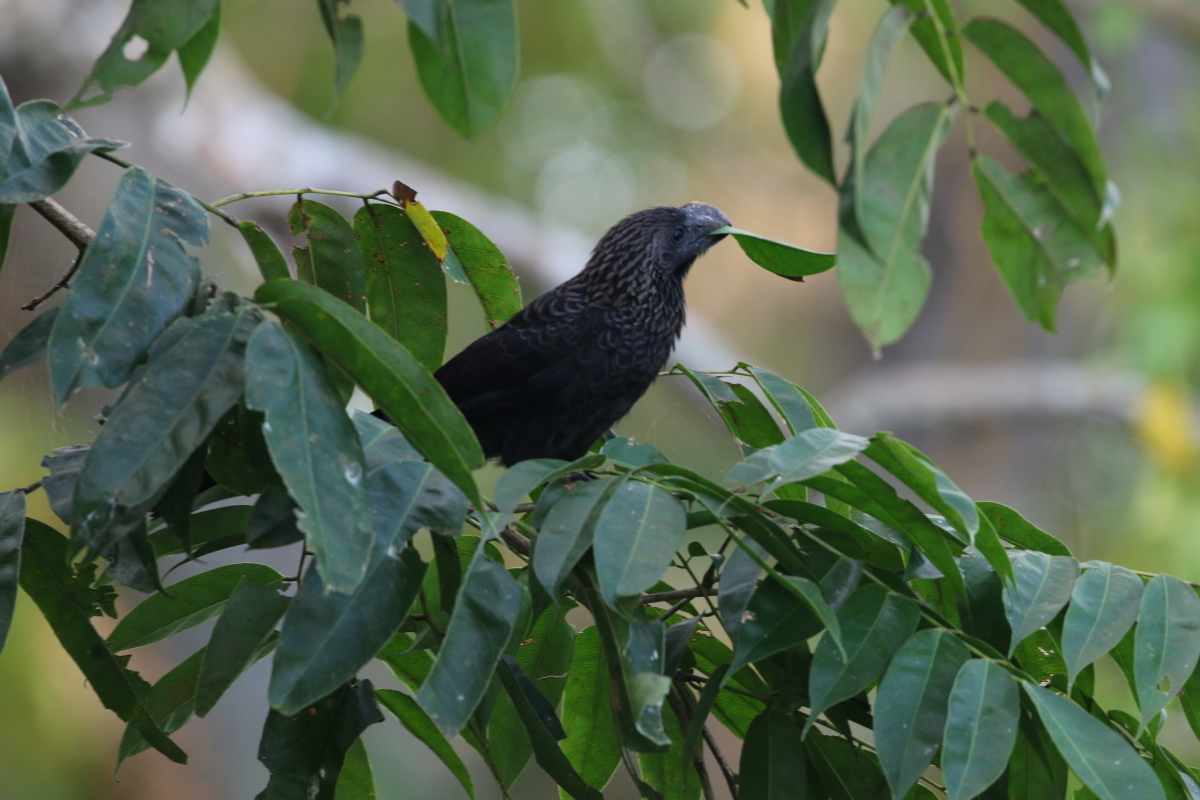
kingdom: Animalia
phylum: Chordata
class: Aves
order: Cuculiformes
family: Cuculidae
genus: Crotophaga
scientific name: Crotophaga ani
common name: Smooth-billed ani
